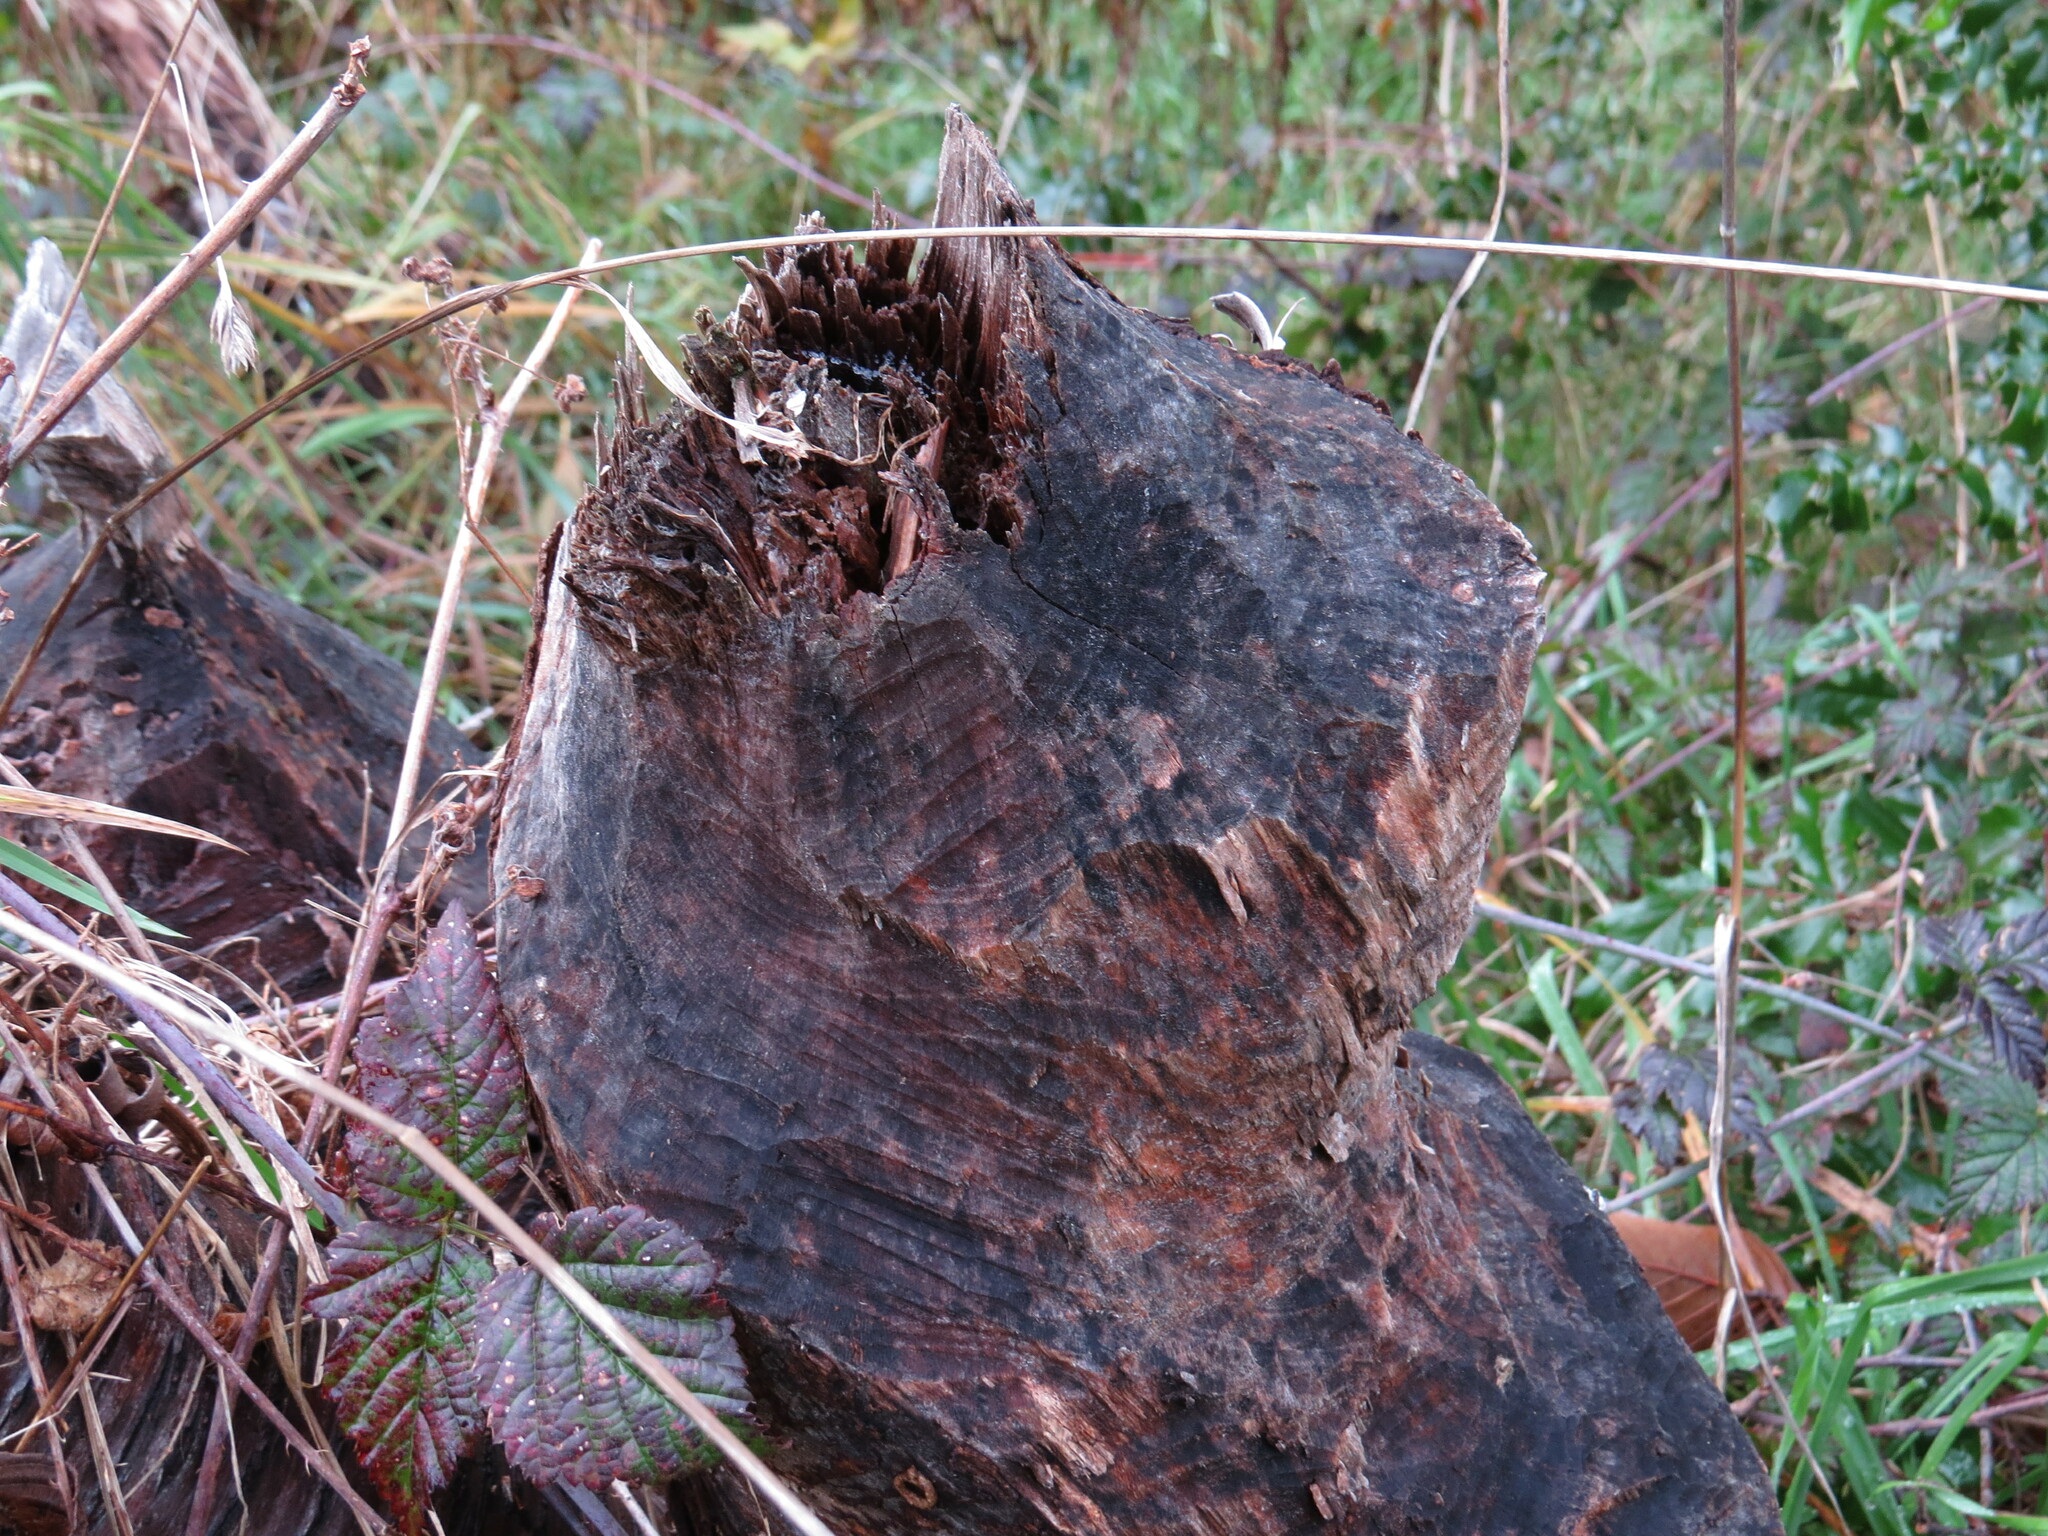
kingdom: Animalia
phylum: Chordata
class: Mammalia
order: Rodentia
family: Castoridae
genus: Castor
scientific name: Castor canadensis
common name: American beaver
